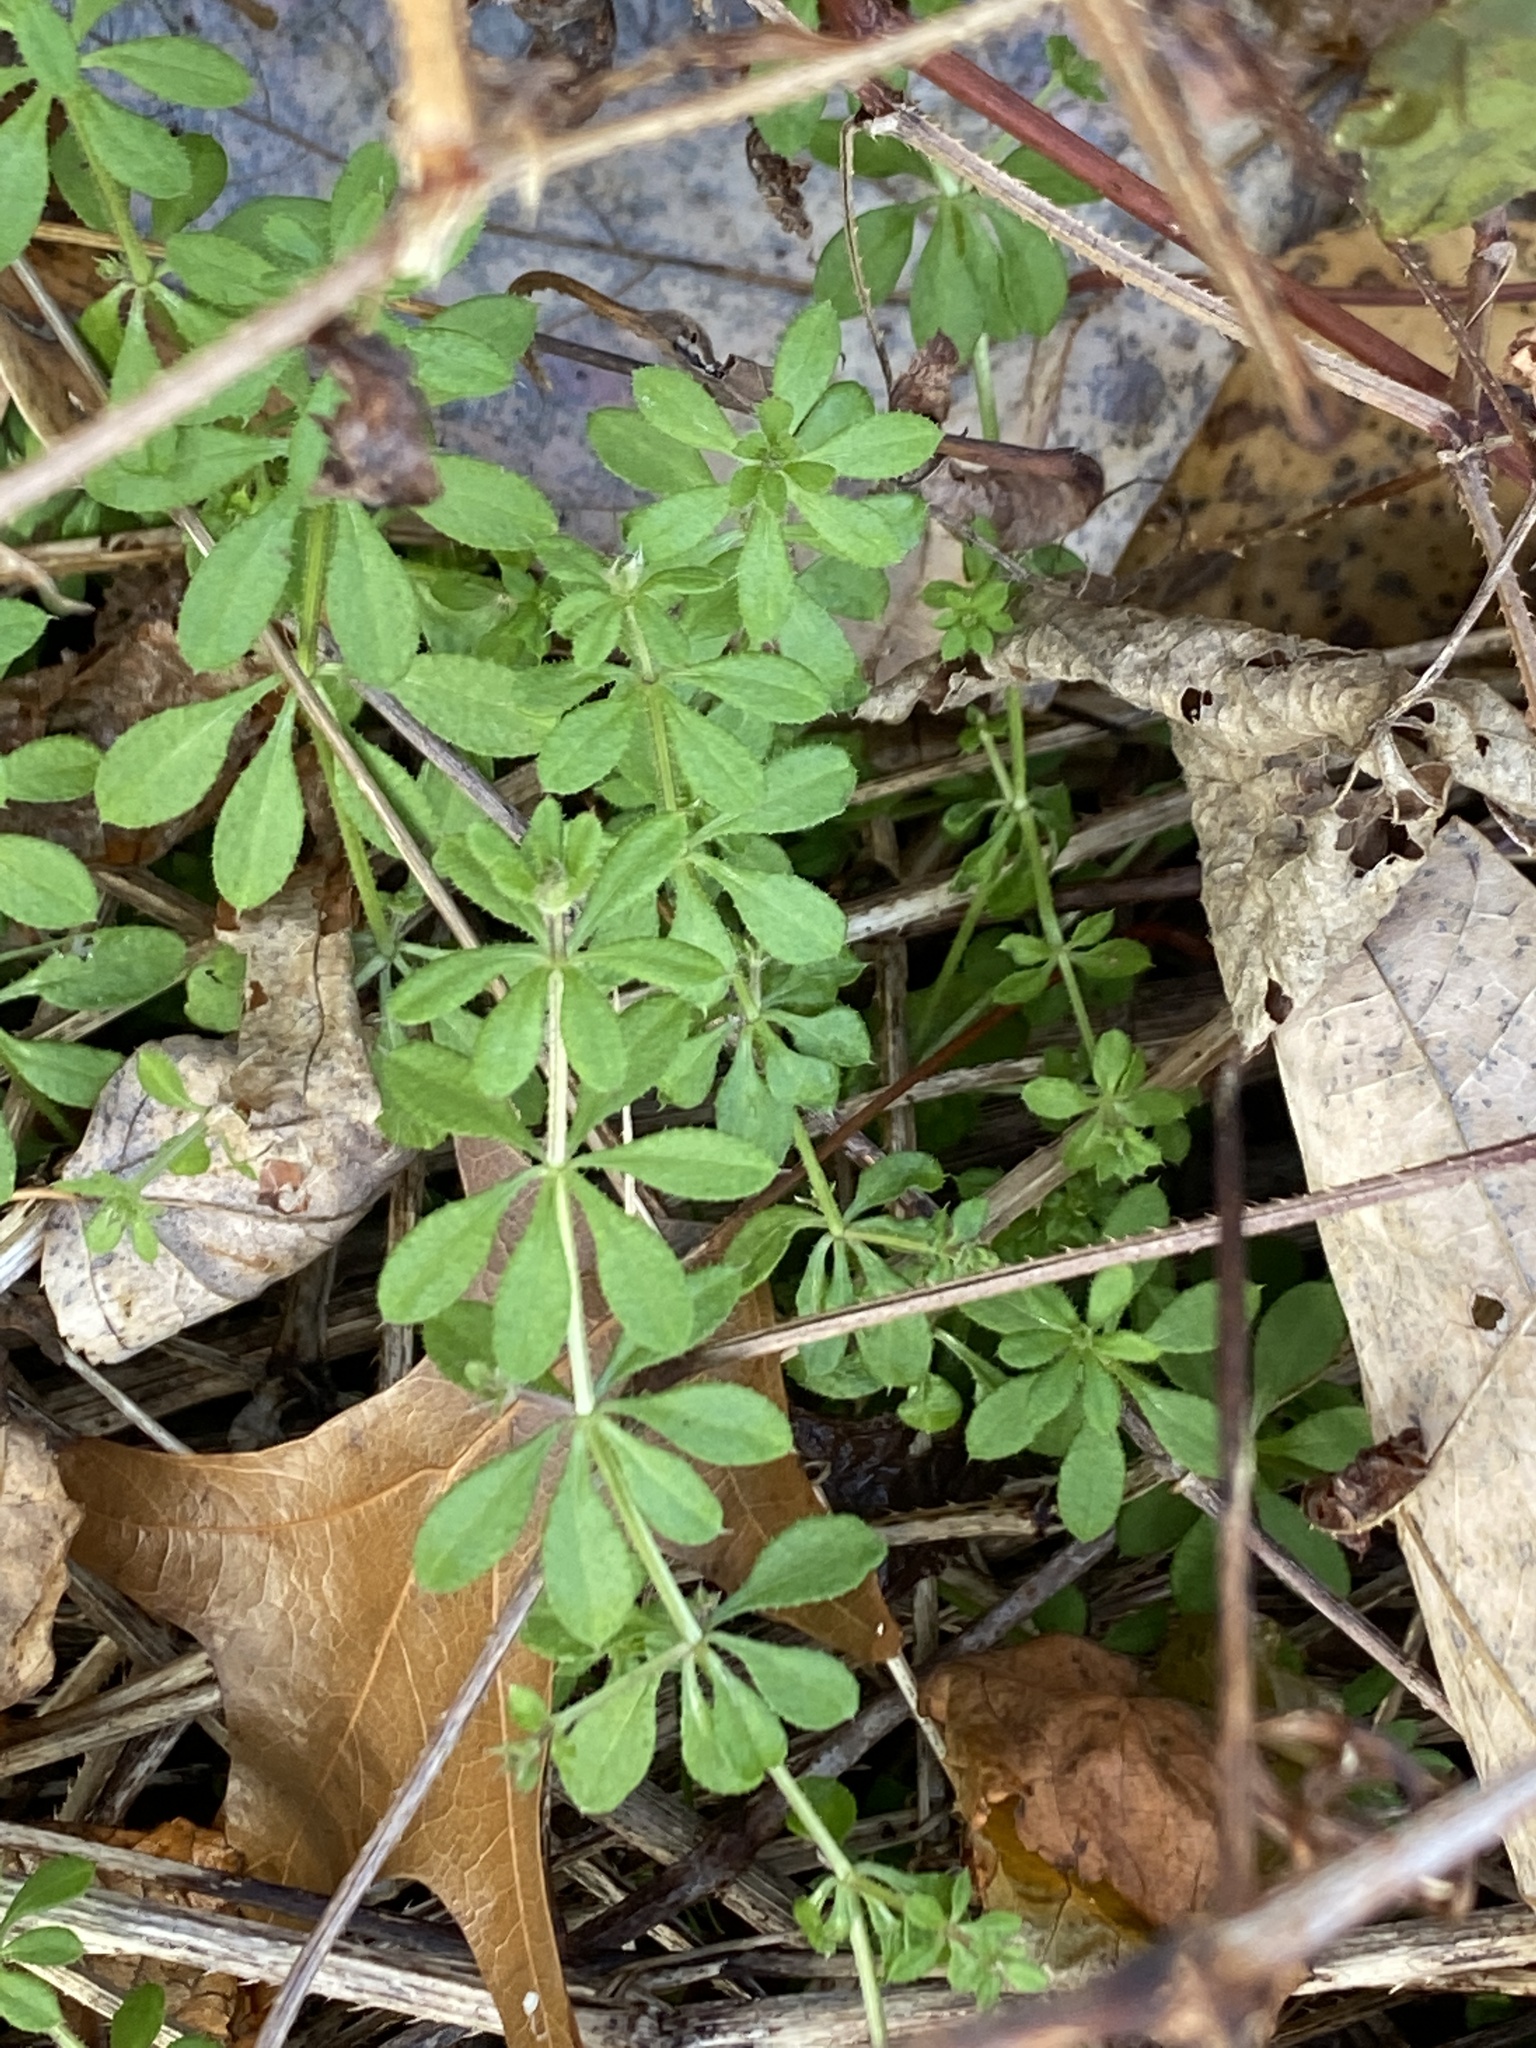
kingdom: Plantae
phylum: Tracheophyta
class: Magnoliopsida
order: Gentianales
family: Rubiaceae
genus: Galium
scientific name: Galium aparine
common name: Cleavers
